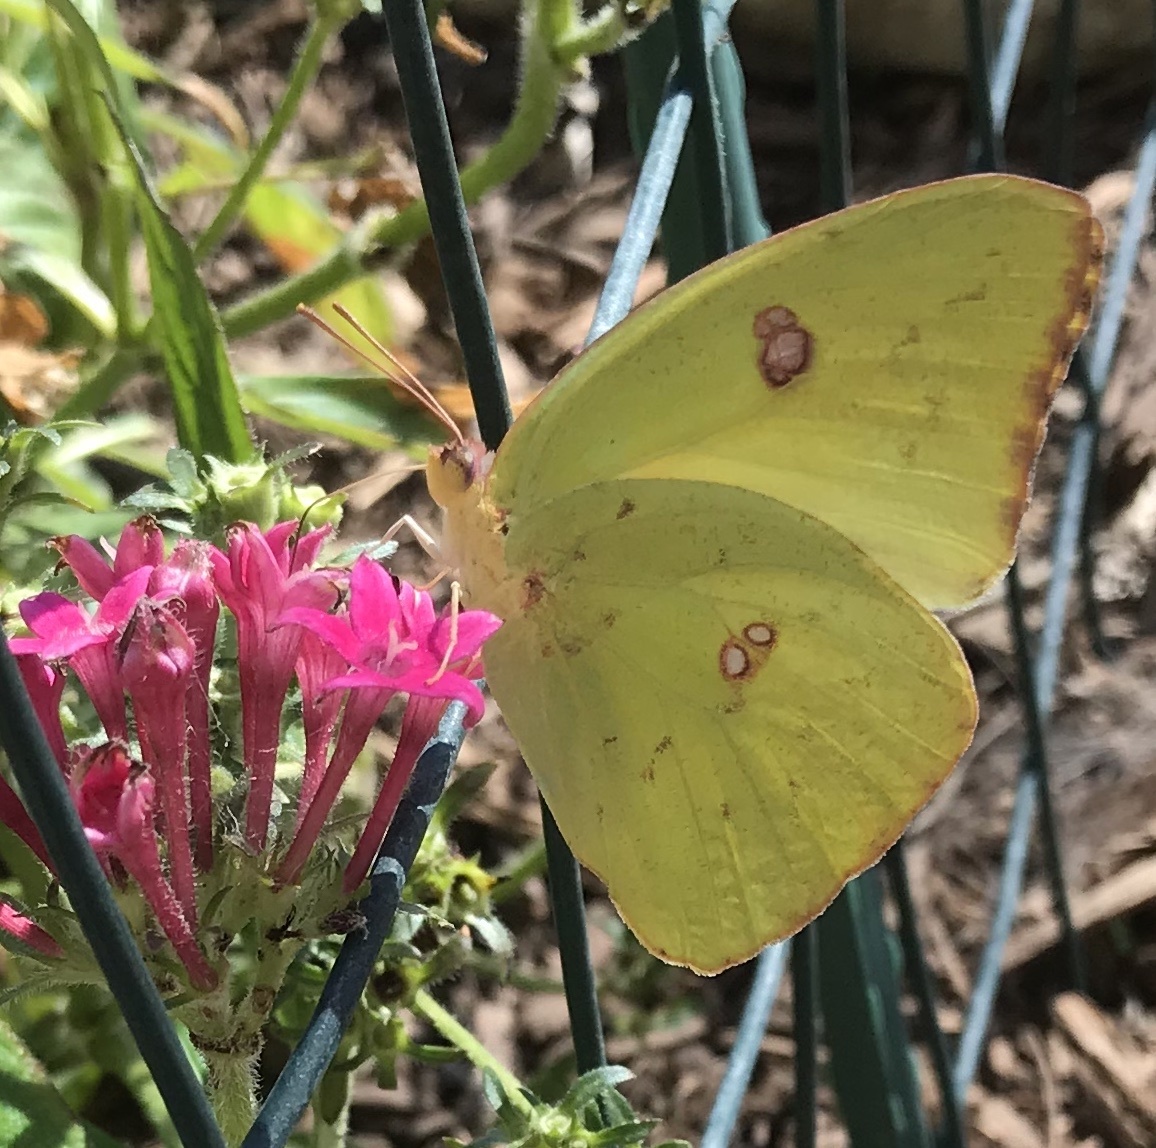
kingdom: Animalia
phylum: Arthropoda
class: Insecta
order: Lepidoptera
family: Pieridae
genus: Phoebis
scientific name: Phoebis sennae
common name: Cloudless sulphur
